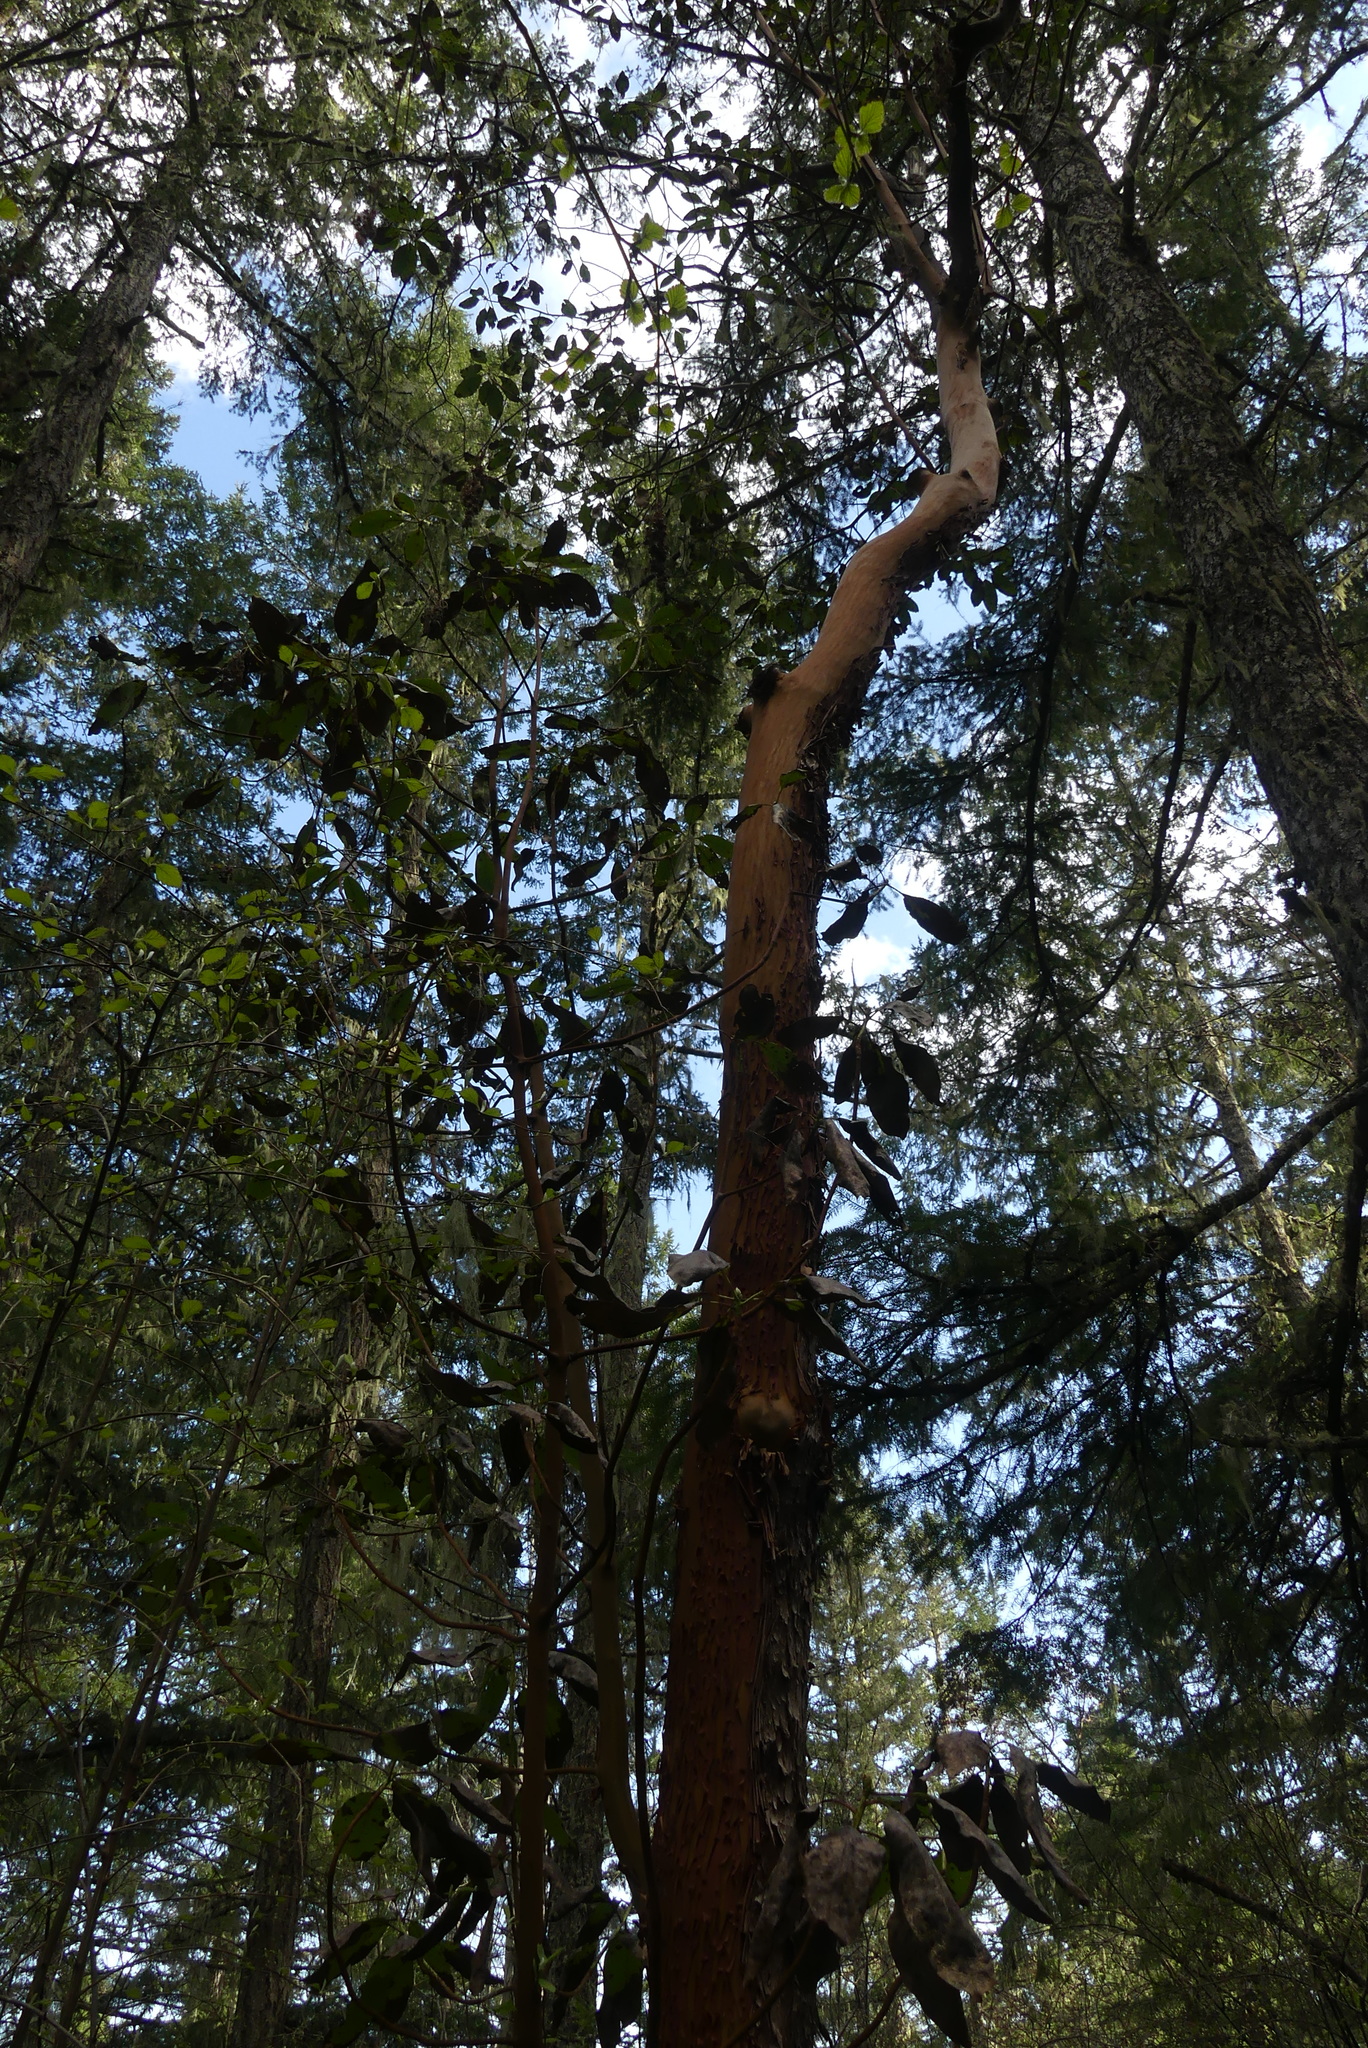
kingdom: Plantae
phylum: Tracheophyta
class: Magnoliopsida
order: Ericales
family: Ericaceae
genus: Arbutus
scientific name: Arbutus menziesii
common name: Pacific madrone
